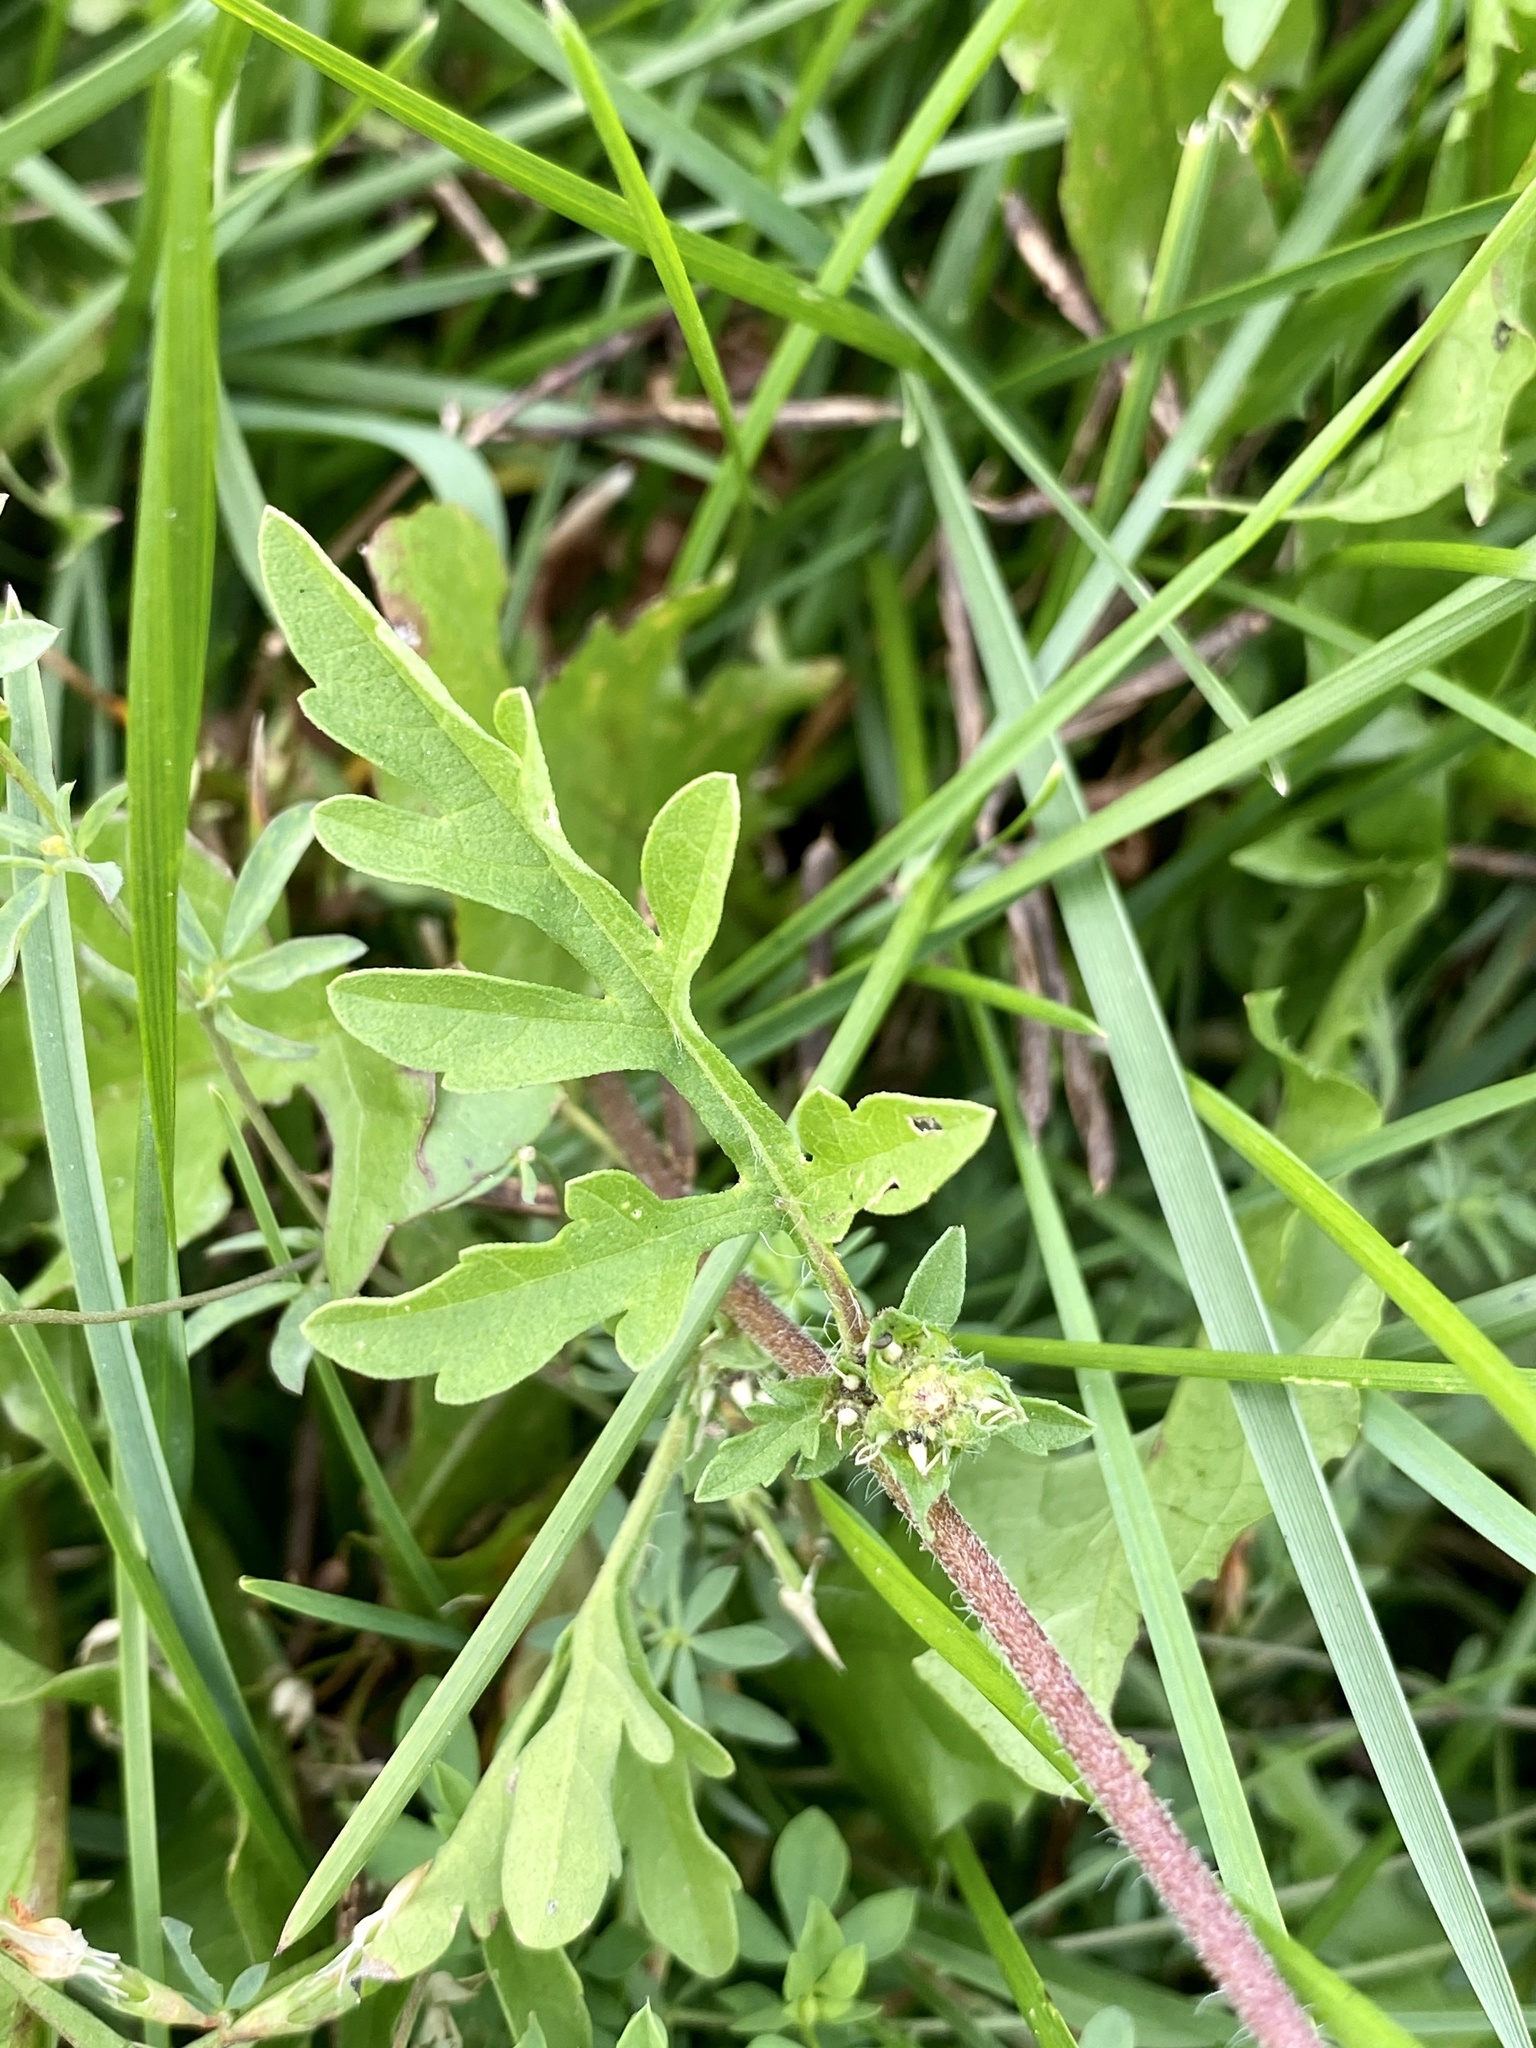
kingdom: Plantae
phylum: Tracheophyta
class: Magnoliopsida
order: Asterales
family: Asteraceae
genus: Ambrosia
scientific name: Ambrosia artemisiifolia
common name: Annual ragweed
